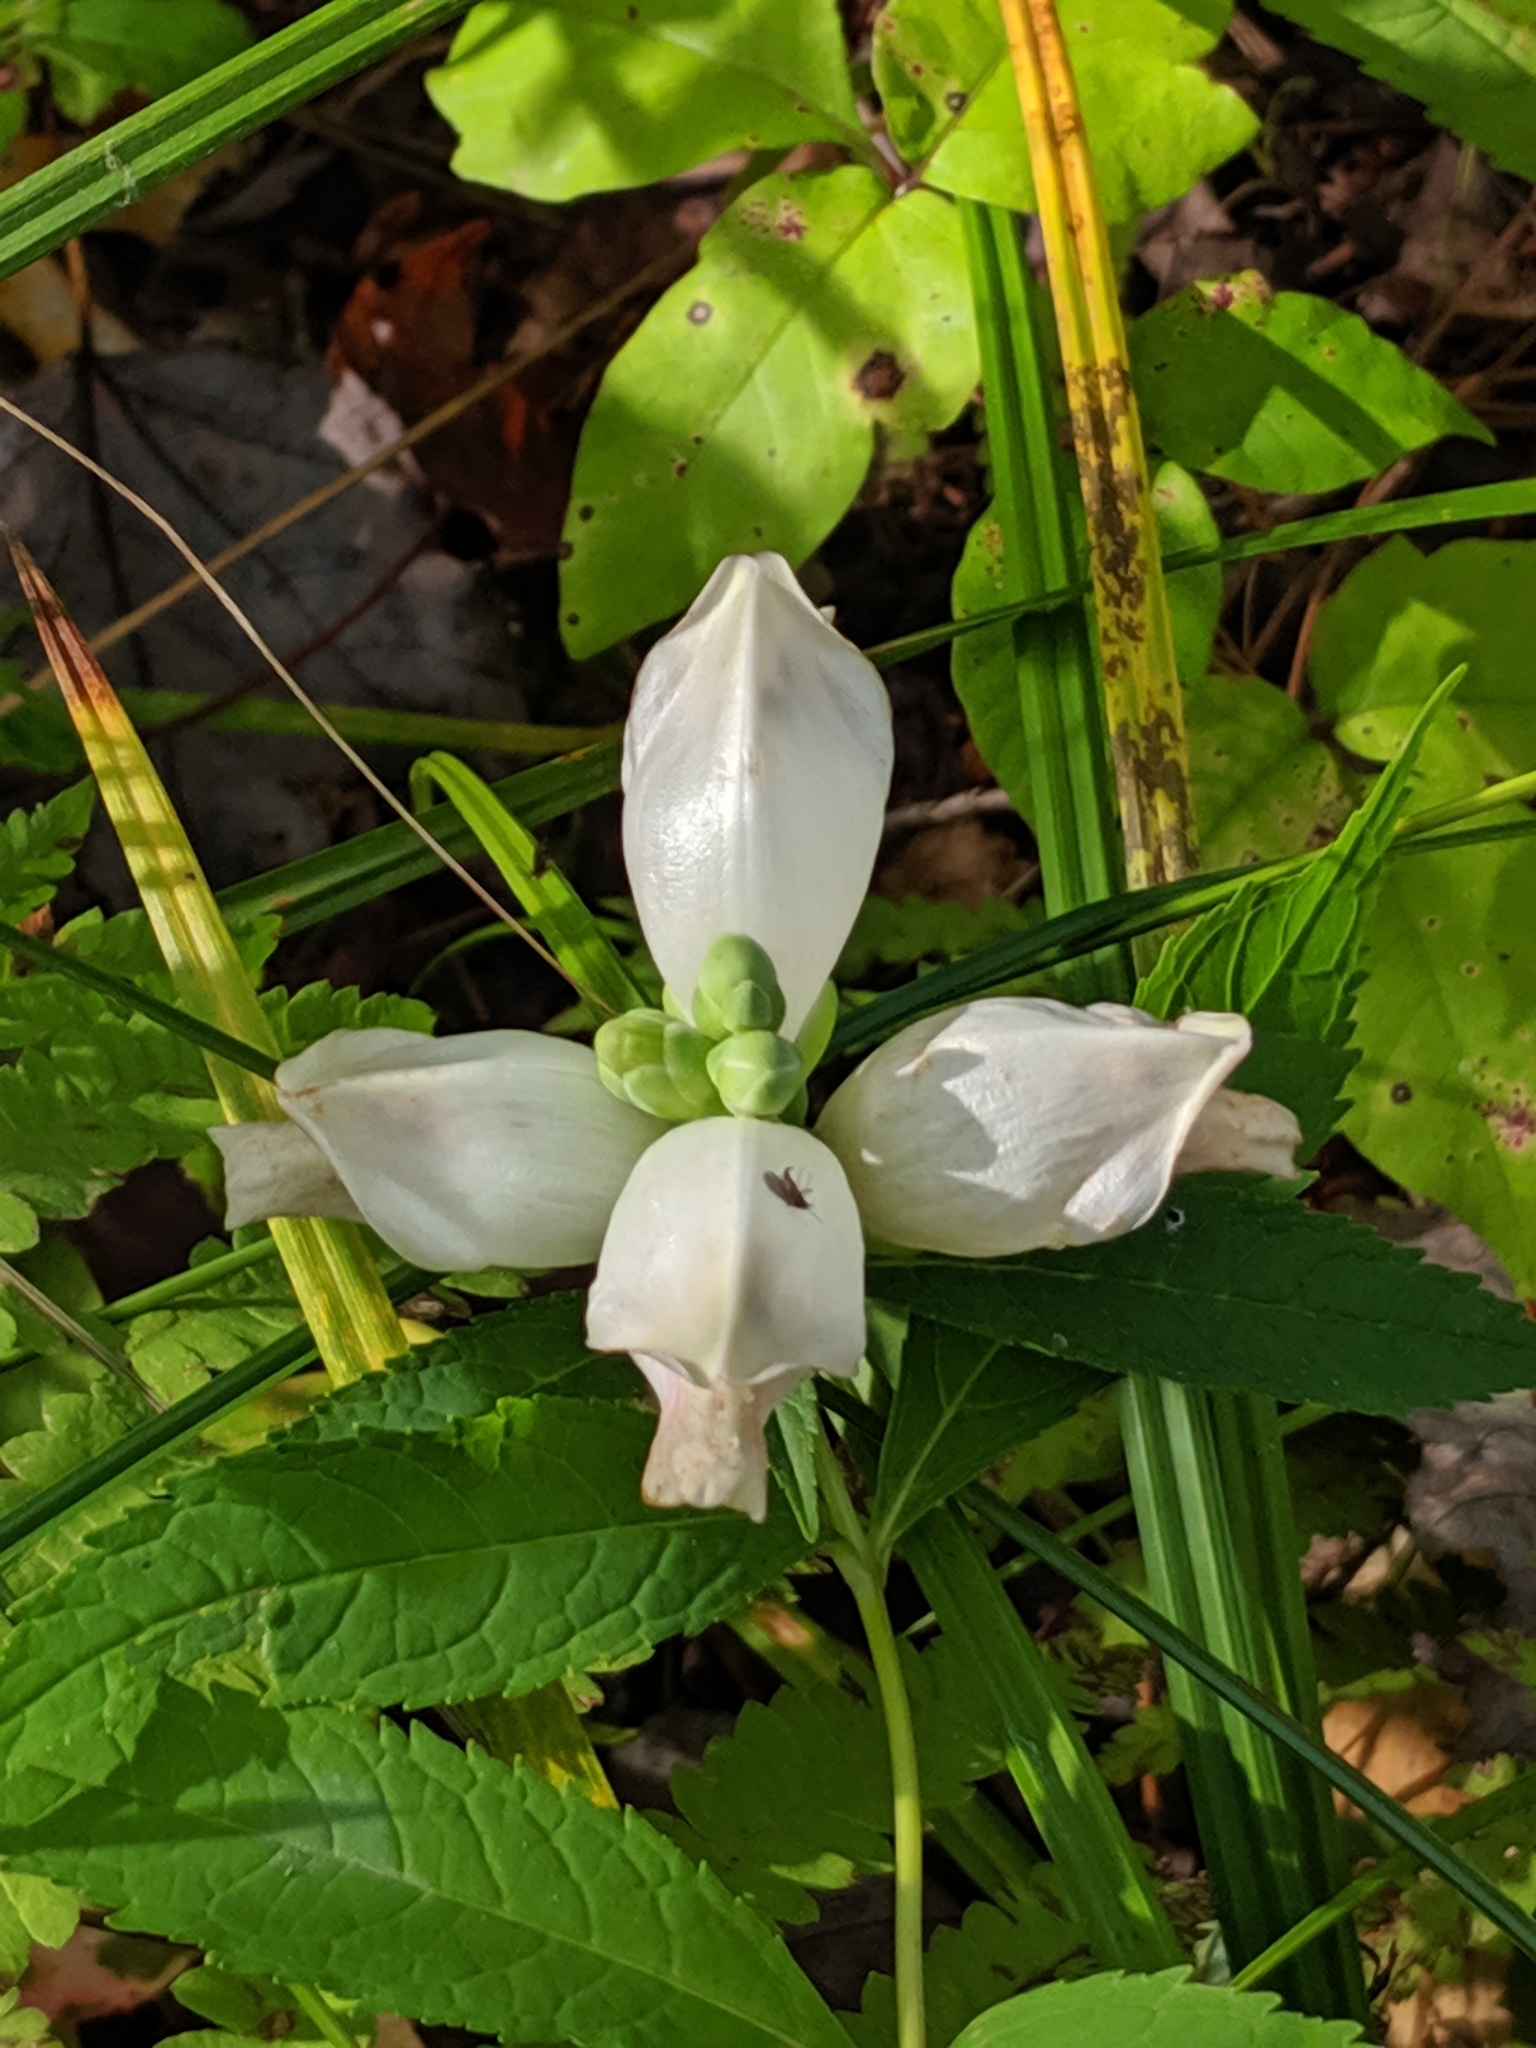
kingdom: Plantae
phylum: Tracheophyta
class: Magnoliopsida
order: Lamiales
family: Plantaginaceae
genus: Chelone
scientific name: Chelone glabra
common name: Snakehead
